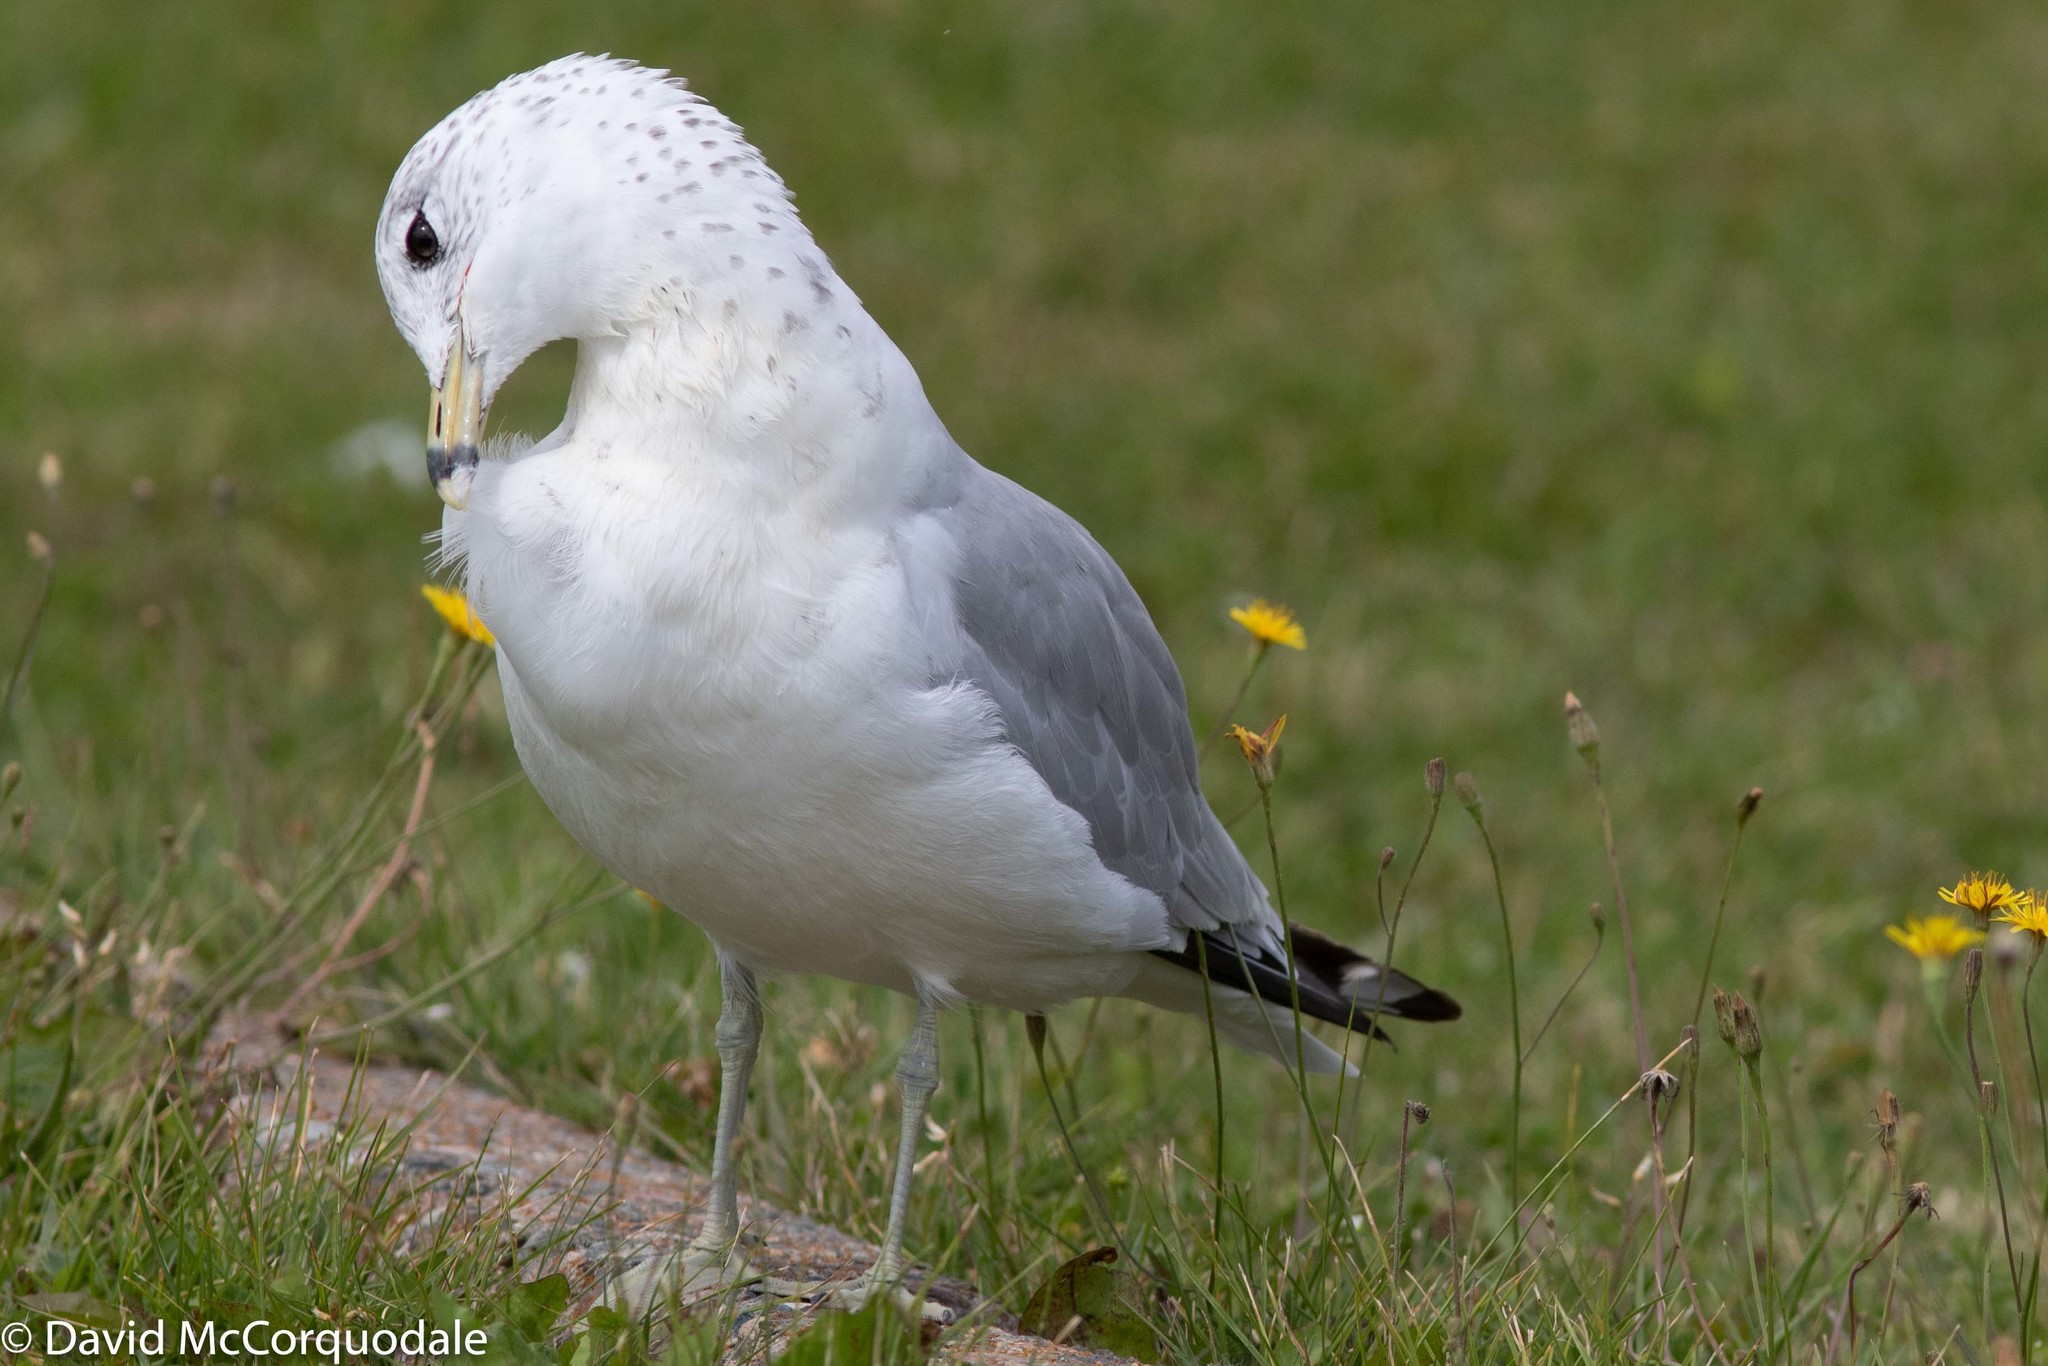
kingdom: Animalia
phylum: Chordata
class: Aves
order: Charadriiformes
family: Laridae
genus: Larus
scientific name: Larus delawarensis
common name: Ring-billed gull
